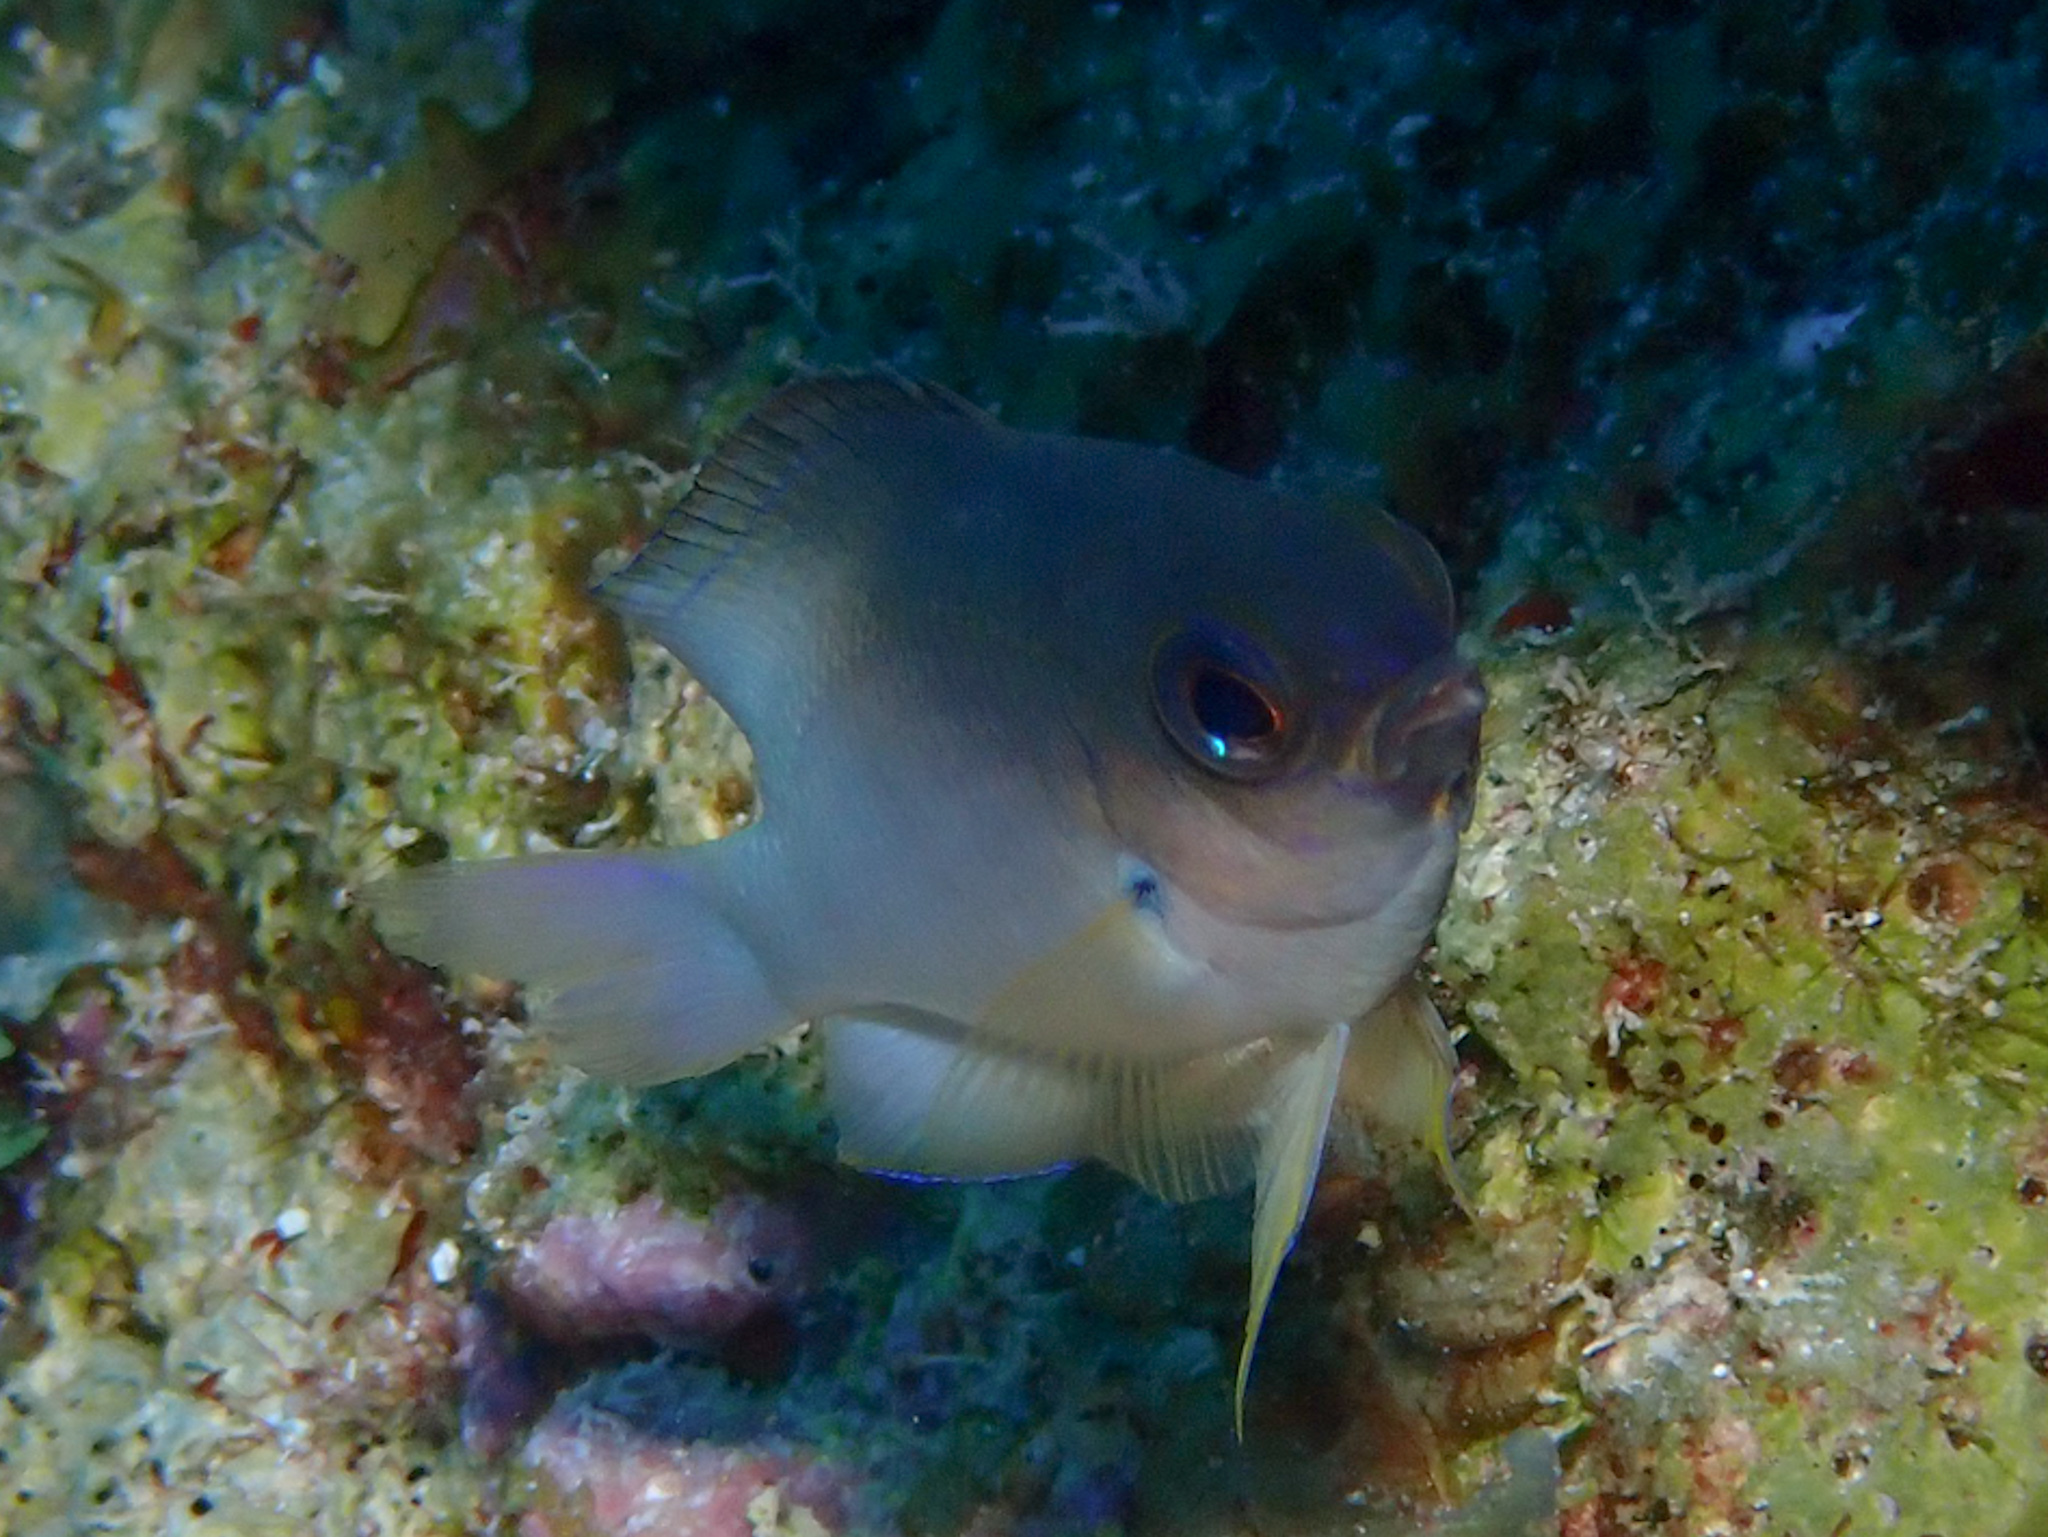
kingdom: Animalia
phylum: Chordata
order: Perciformes
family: Pomacentridae
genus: Stegastes
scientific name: Stegastes partitus
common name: Bicolor damselfish
